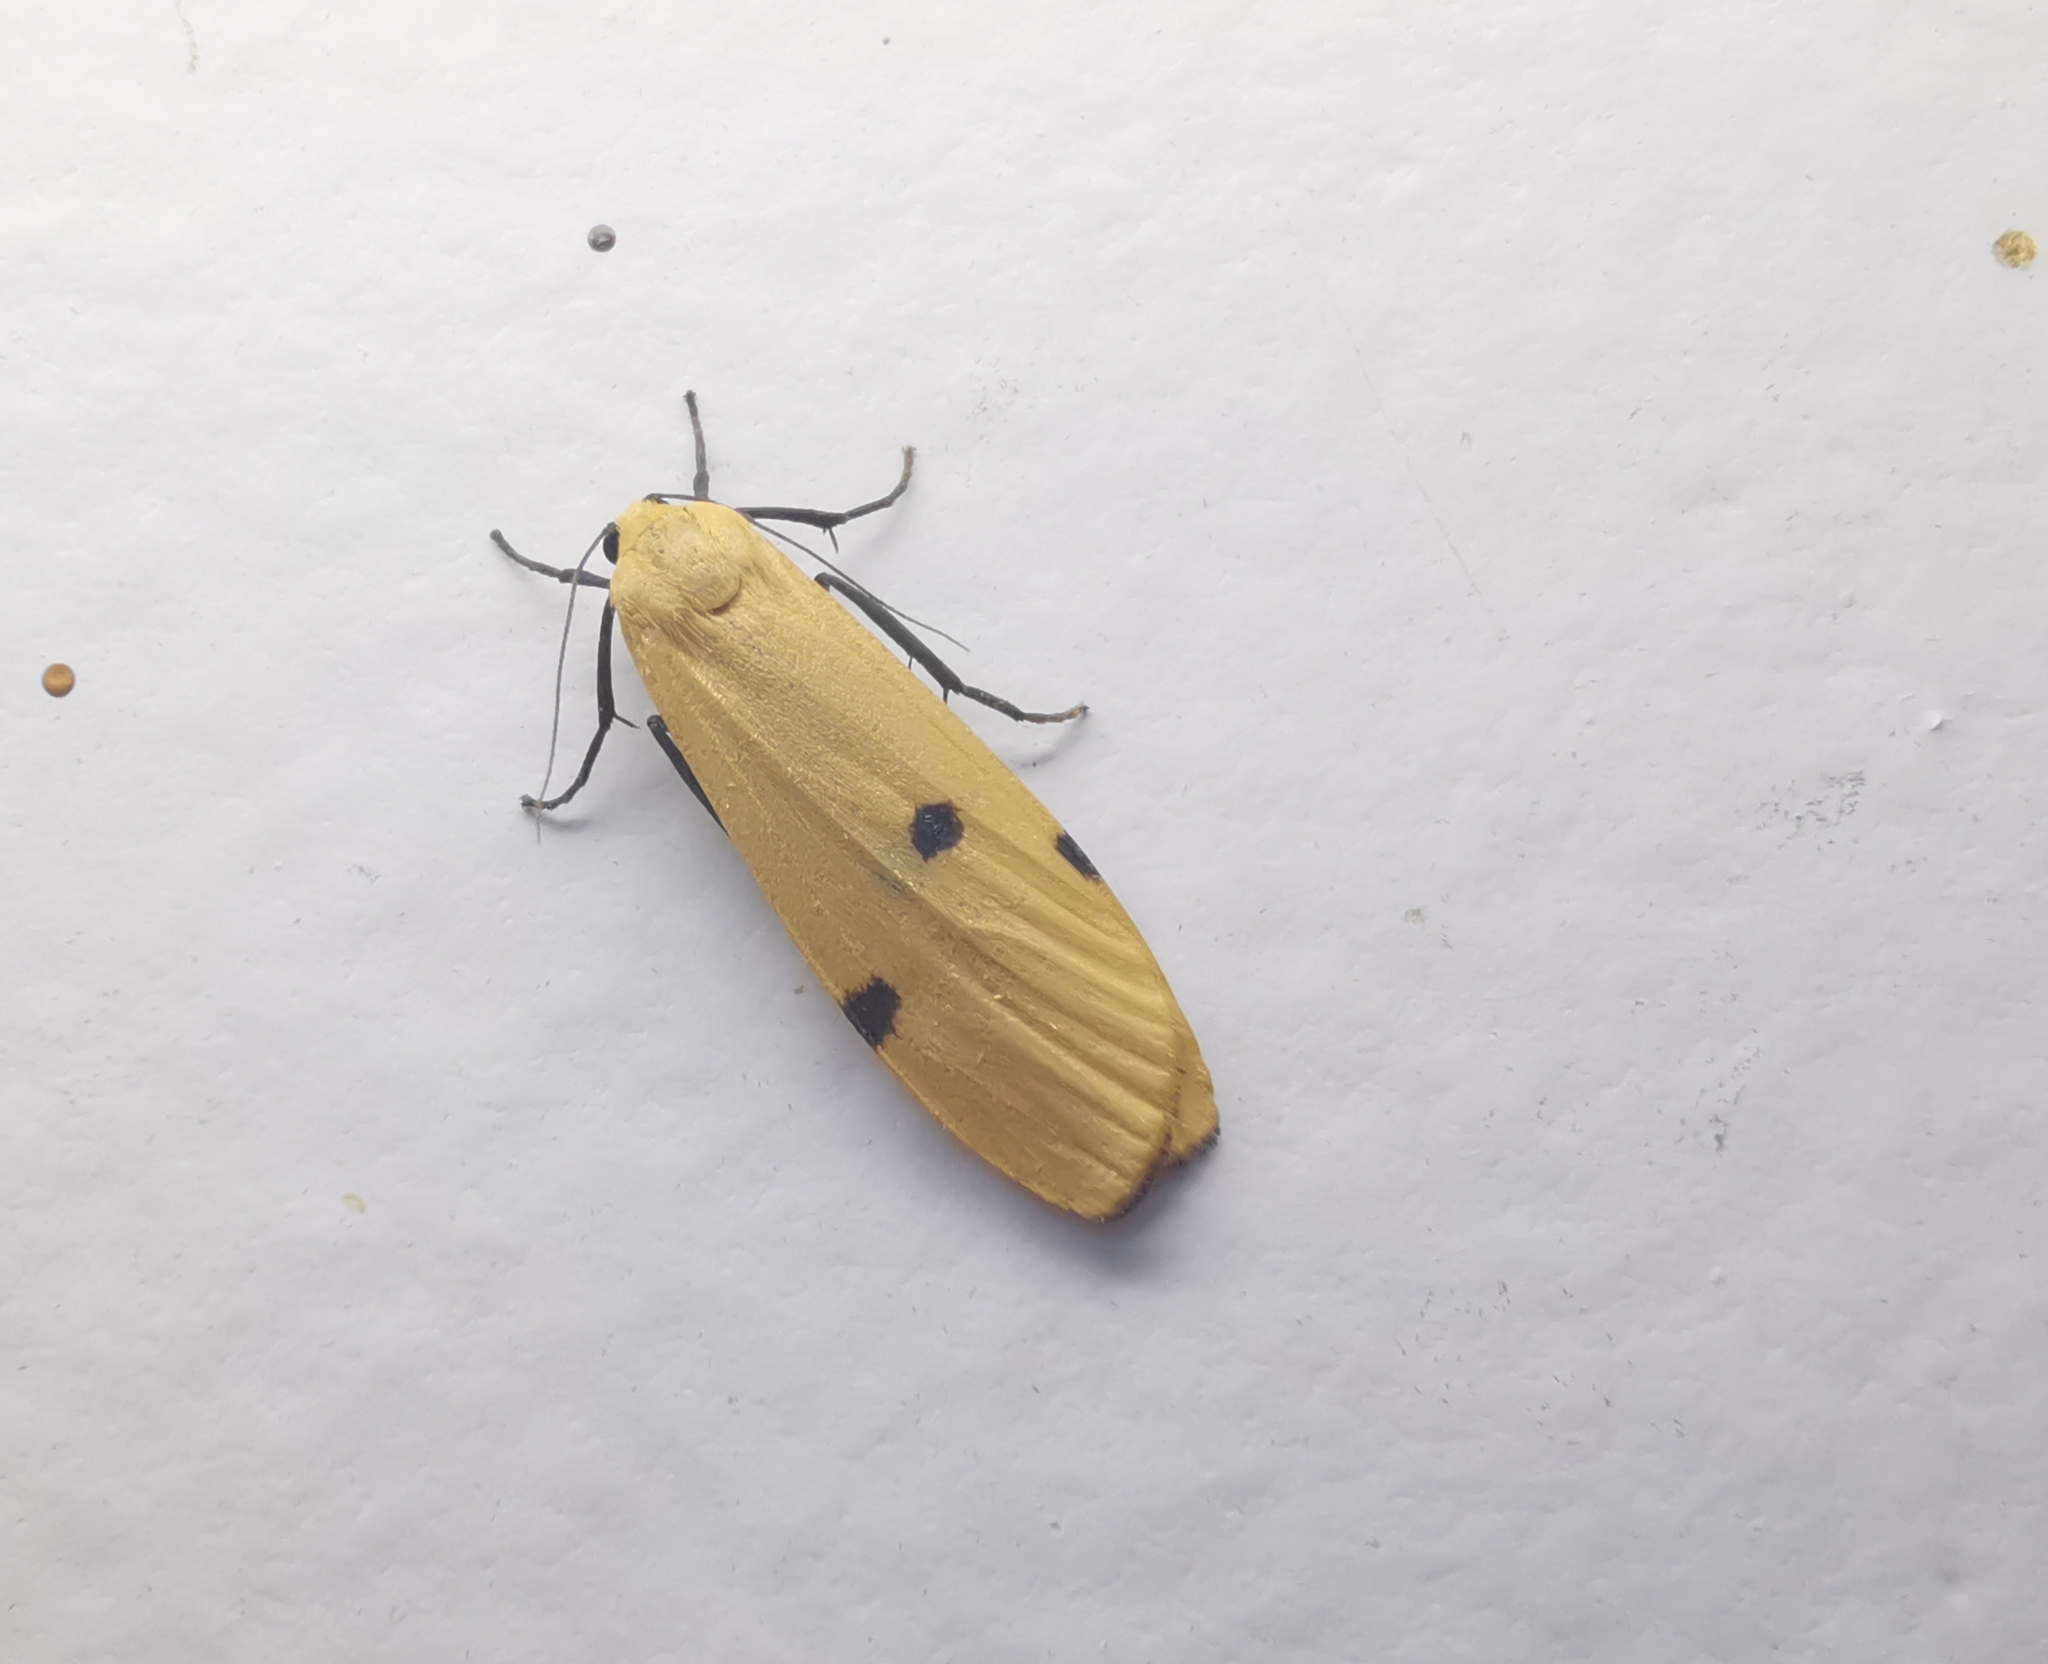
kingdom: Animalia
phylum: Arthropoda
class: Insecta
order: Lepidoptera
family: Erebidae
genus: Lithosia
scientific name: Lithosia quadra
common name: Four-spotted footman
